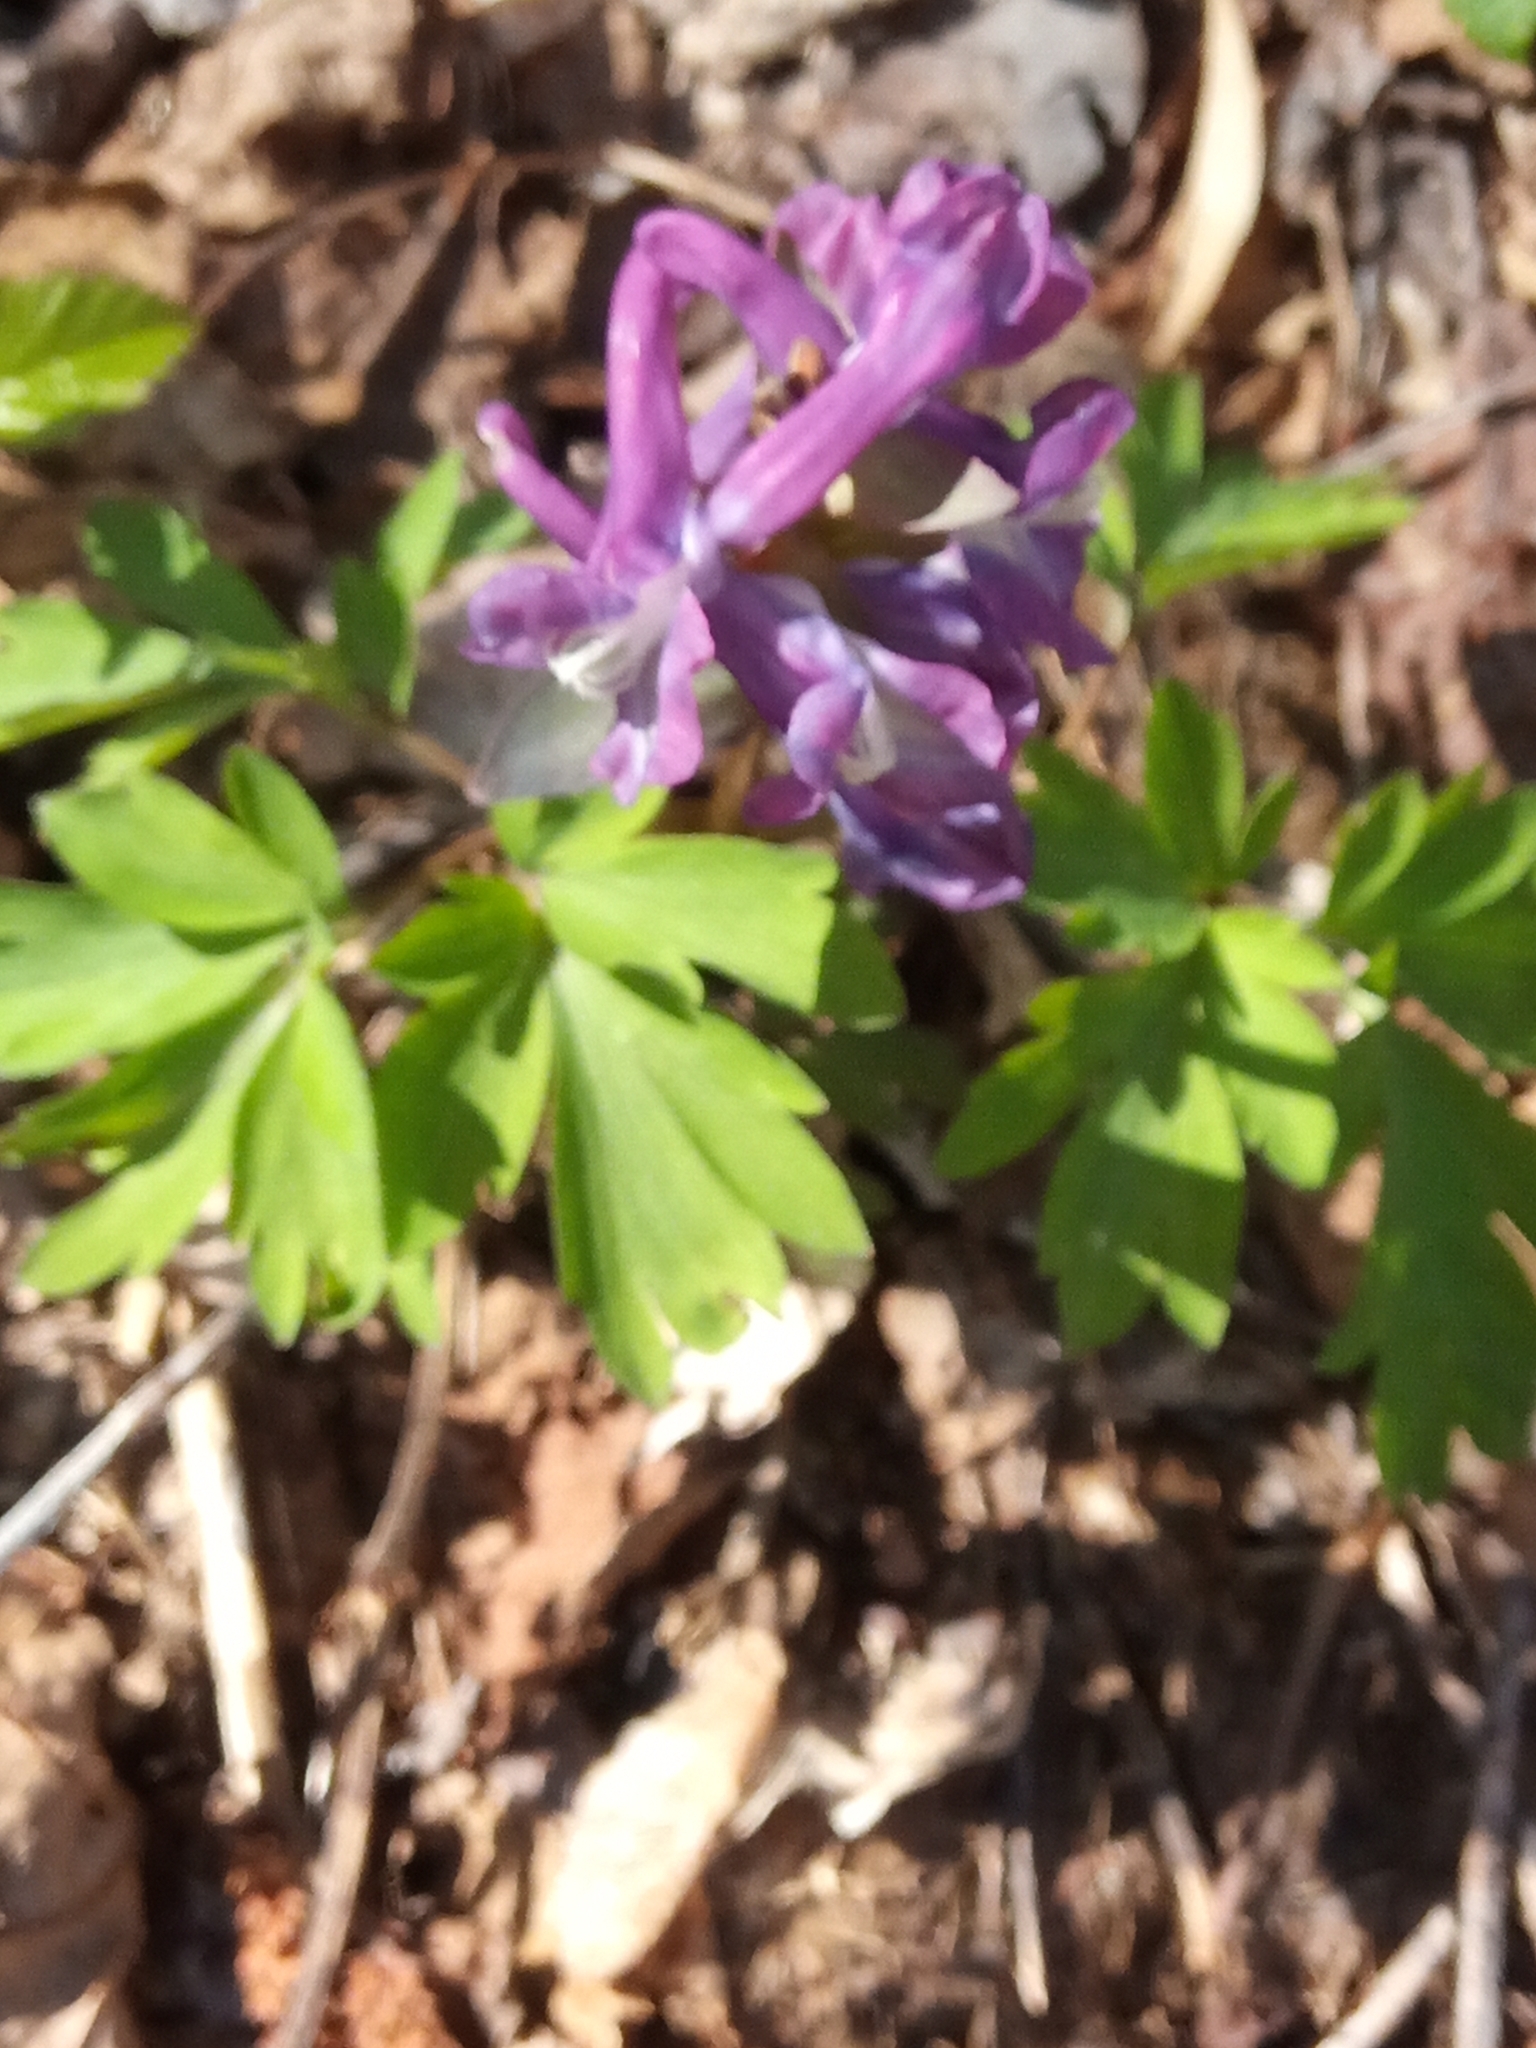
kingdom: Plantae
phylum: Tracheophyta
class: Magnoliopsida
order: Ranunculales
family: Papaveraceae
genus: Corydalis
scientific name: Corydalis cava
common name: Hollowroot
